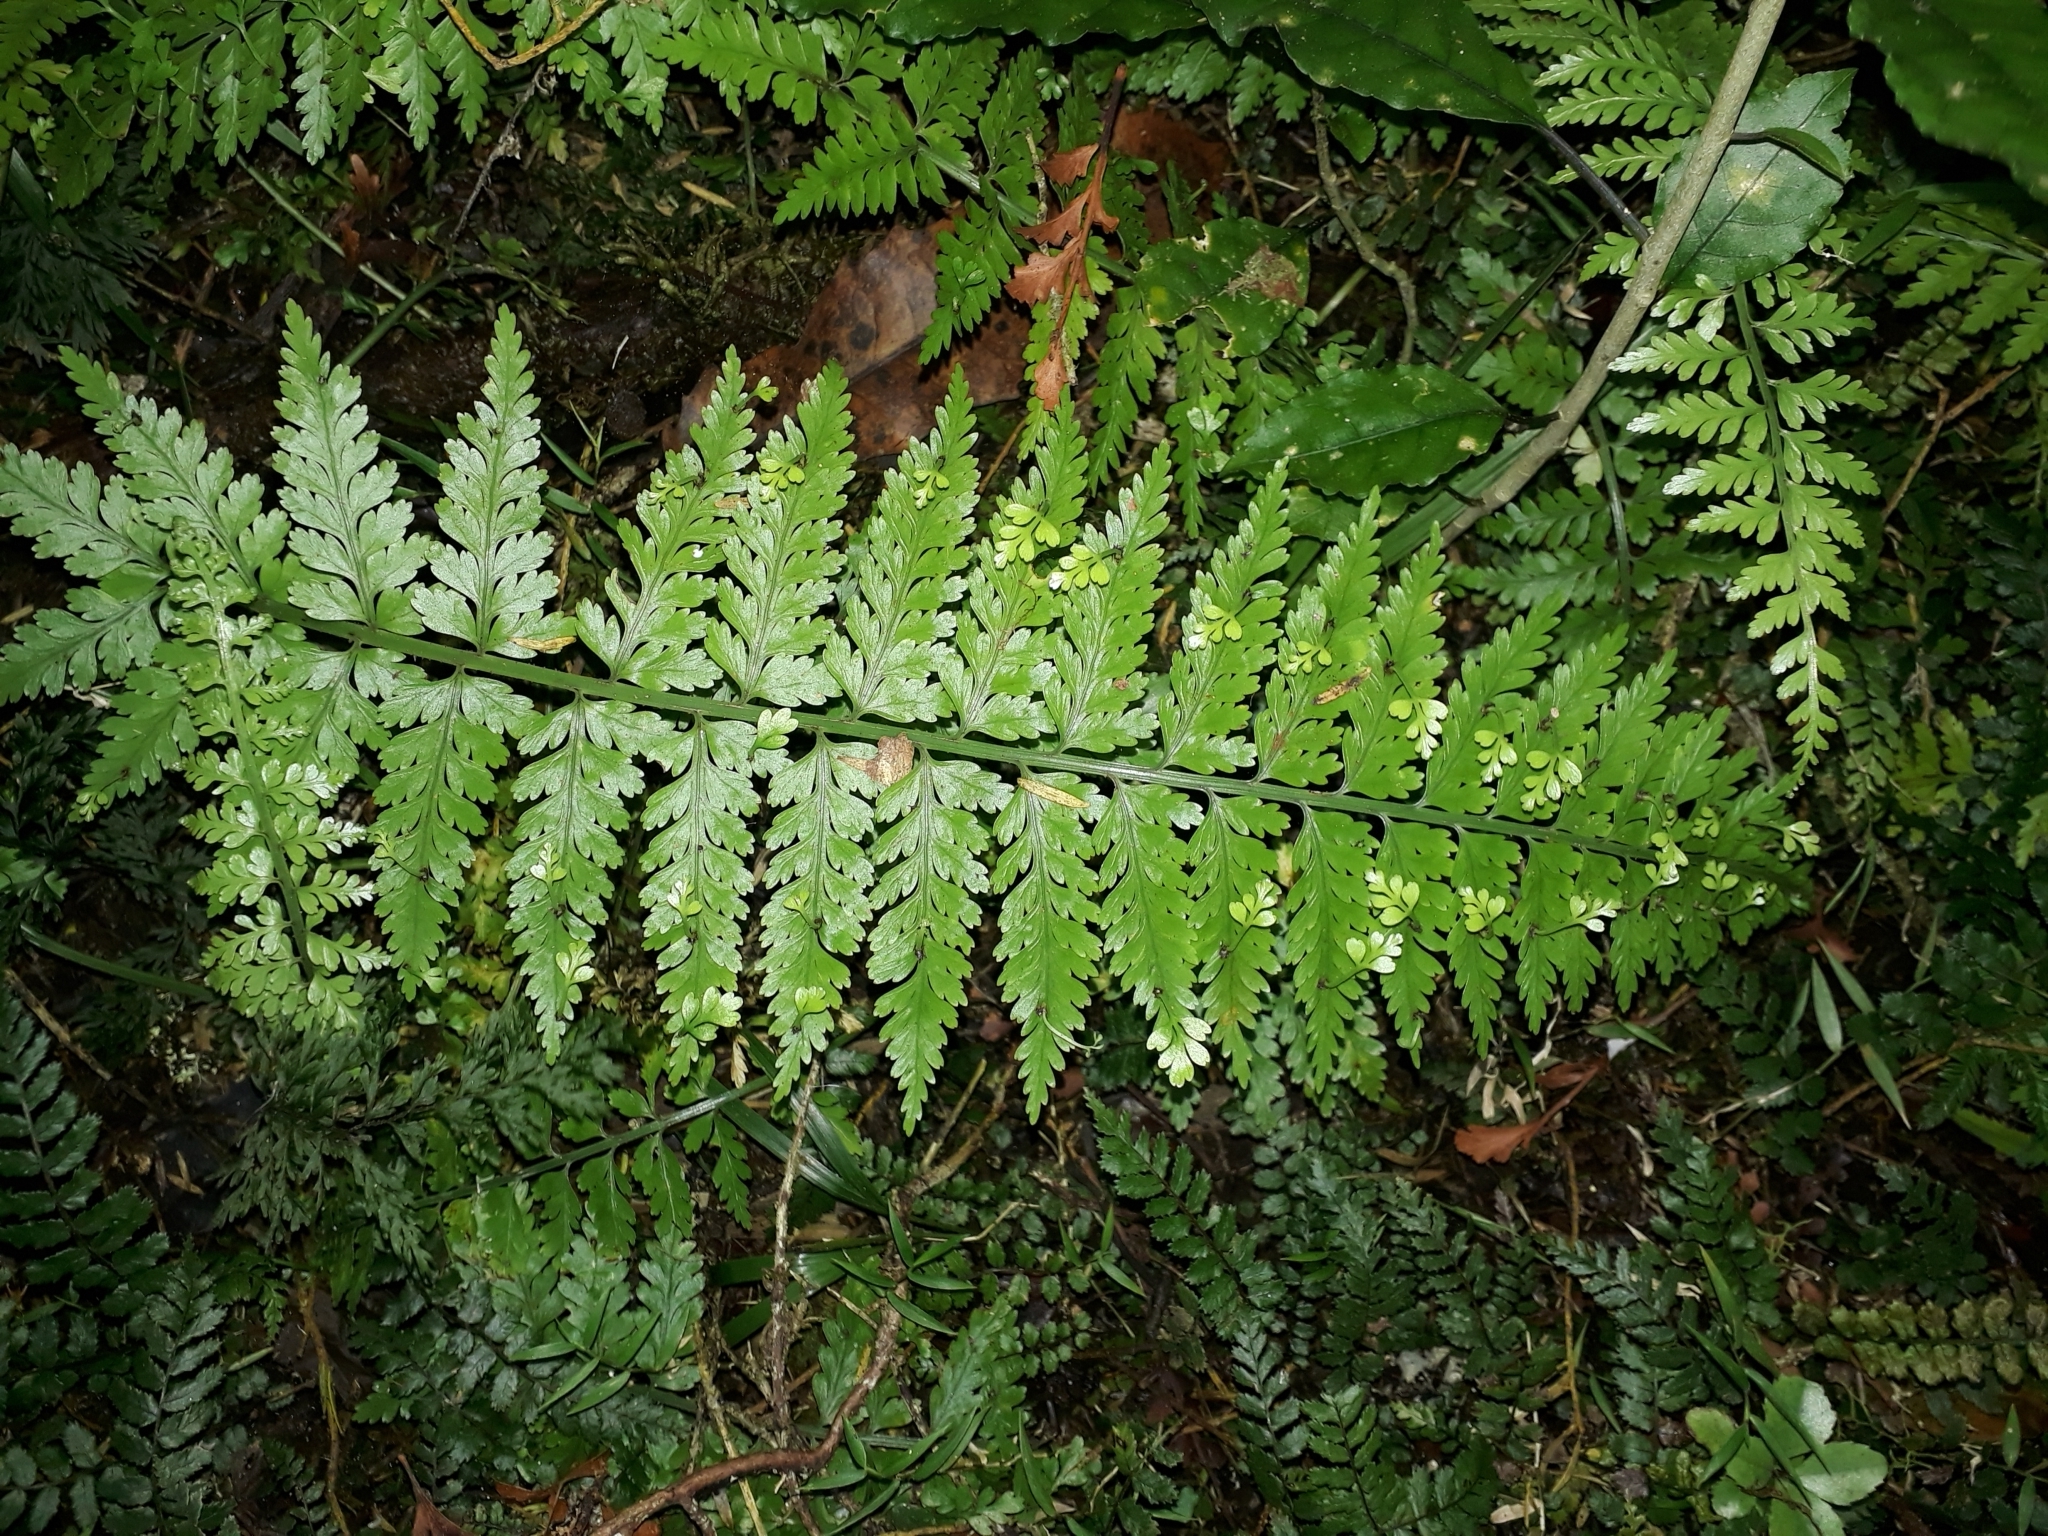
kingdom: Plantae
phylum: Tracheophyta
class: Polypodiopsida
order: Polypodiales
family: Aspleniaceae
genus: Asplenium
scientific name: Asplenium bulbiferum
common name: Mother fern
